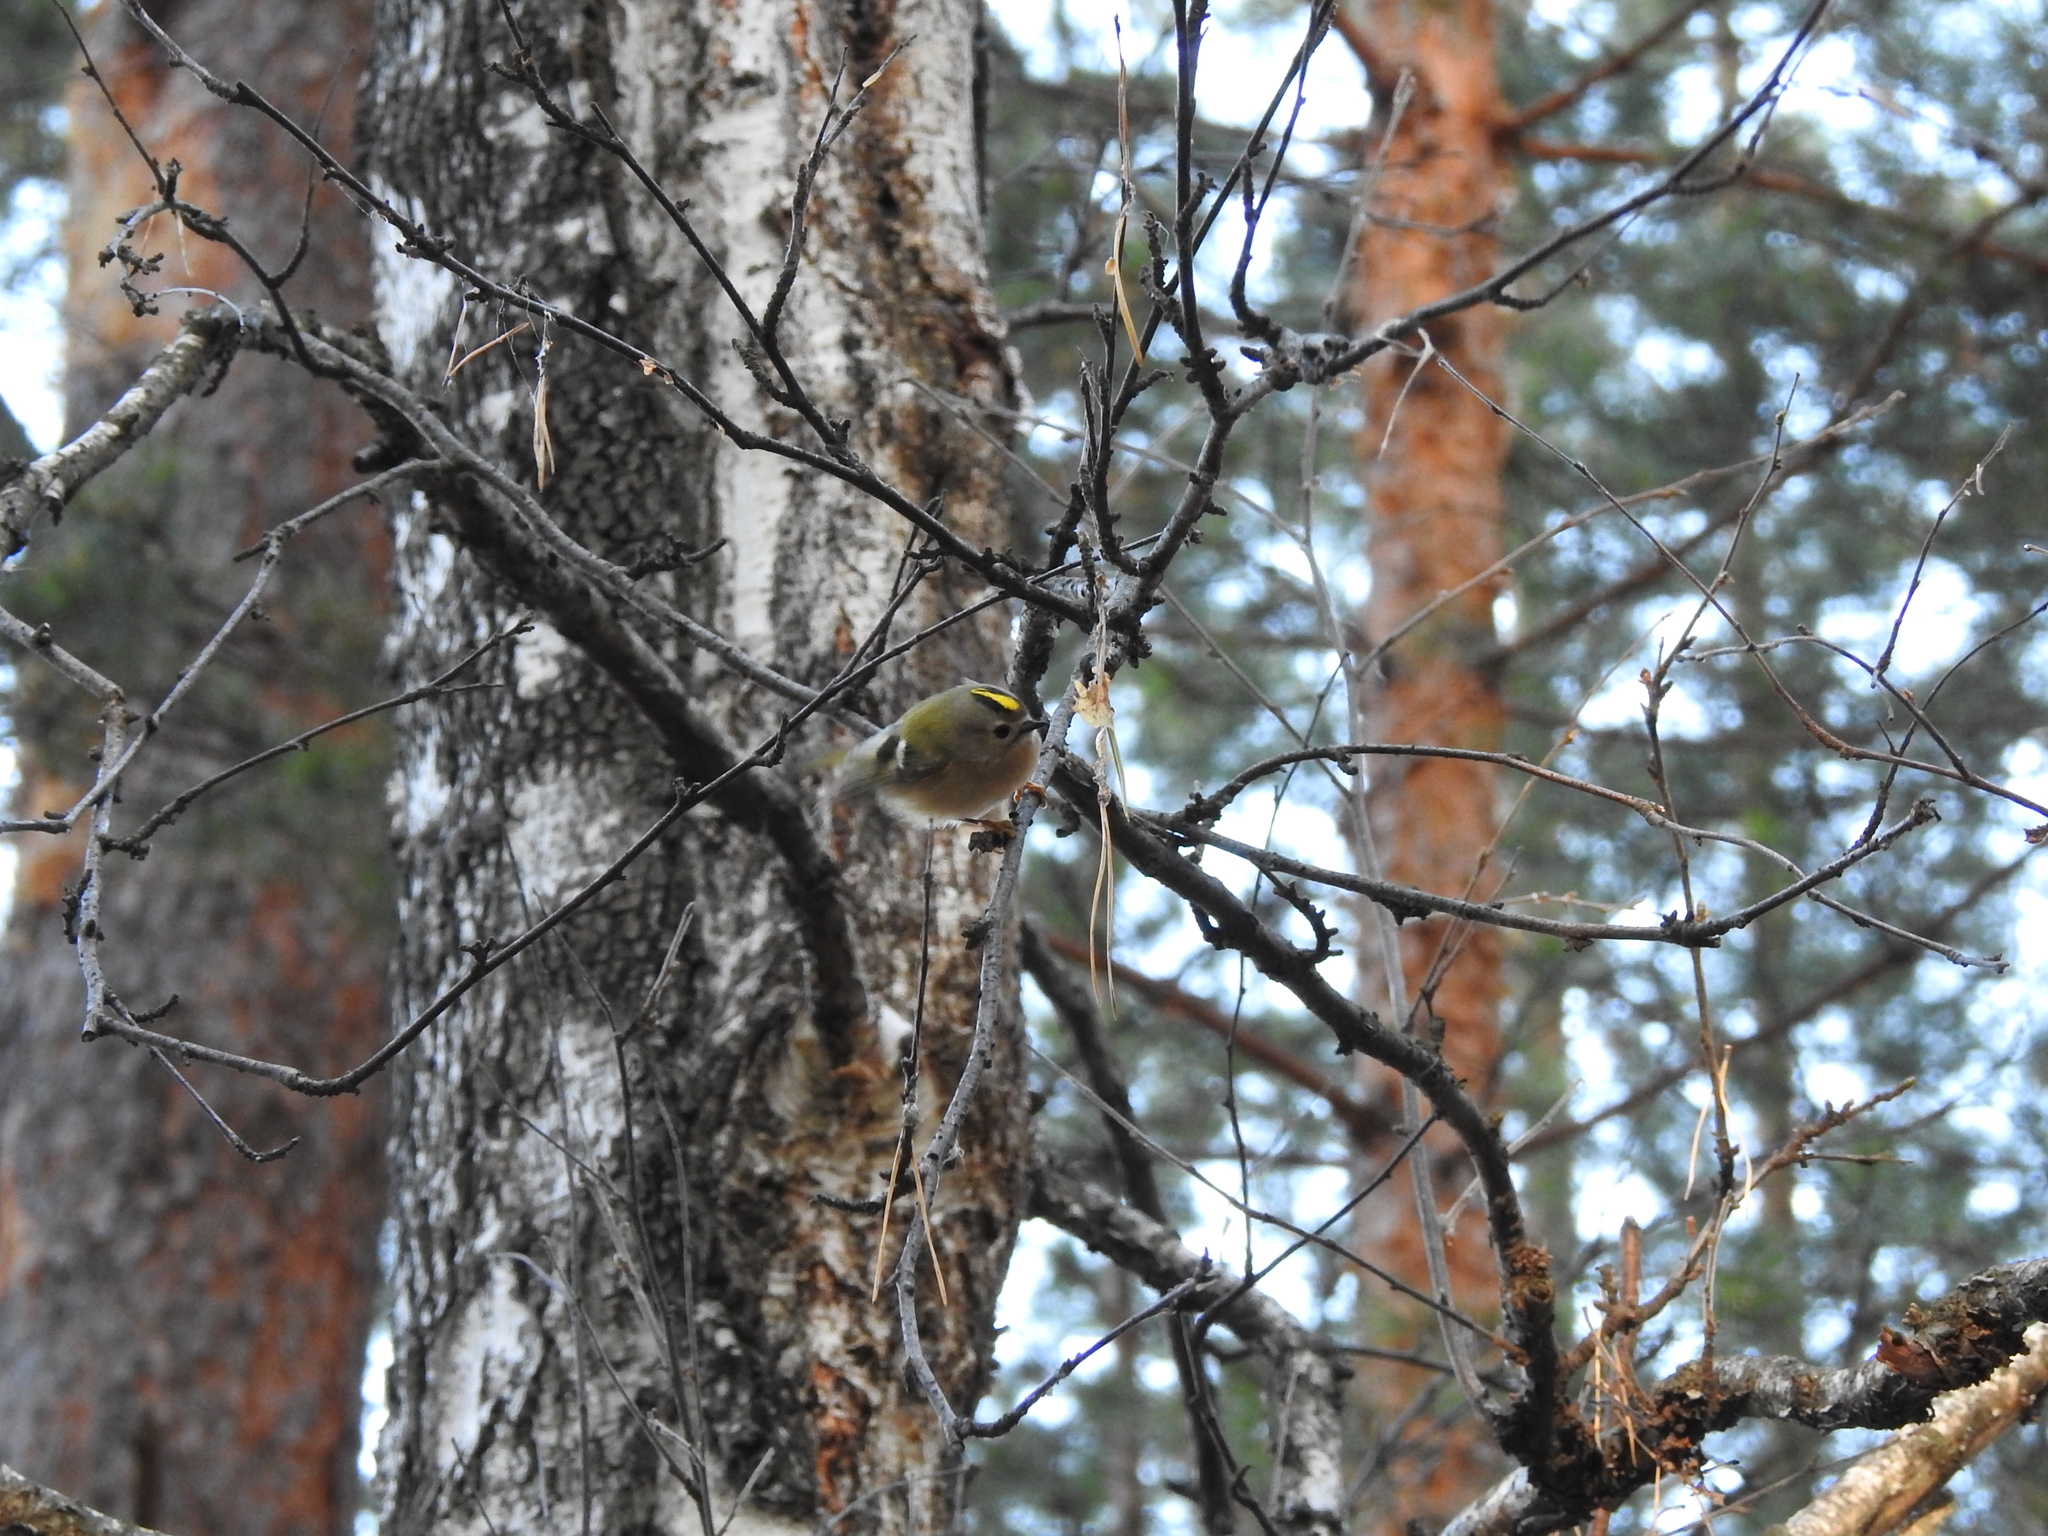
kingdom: Animalia
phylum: Chordata
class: Aves
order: Passeriformes
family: Regulidae
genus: Regulus
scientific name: Regulus regulus
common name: Goldcrest
